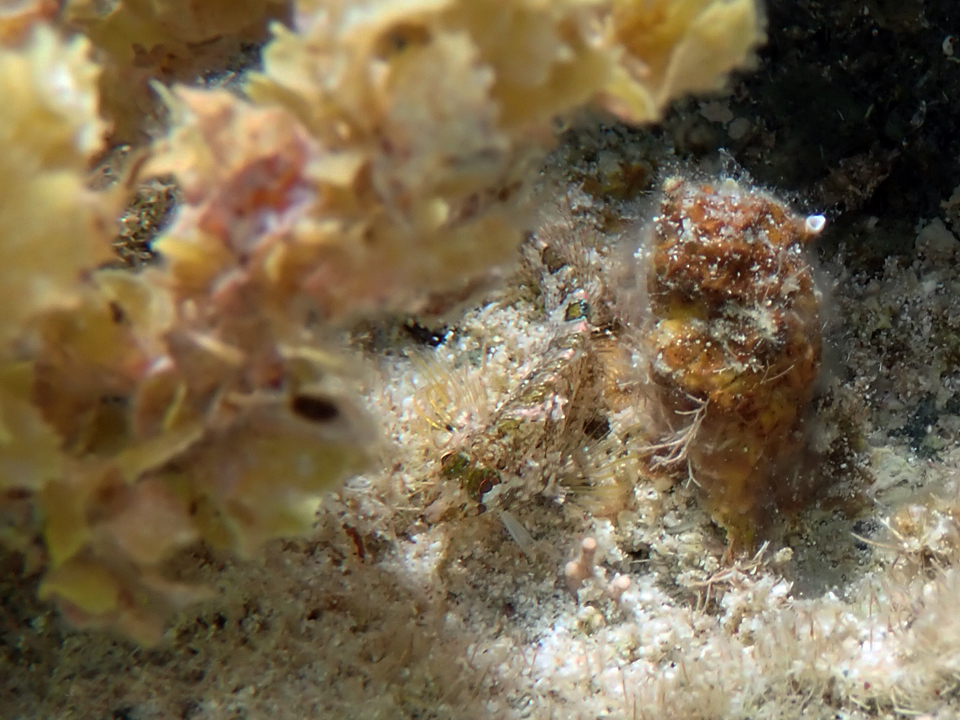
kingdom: Animalia
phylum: Chordata
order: Perciformes
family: Labrisomidae
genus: Malacoctenus
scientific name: Malacoctenus erdmani
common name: Imitator blenny
